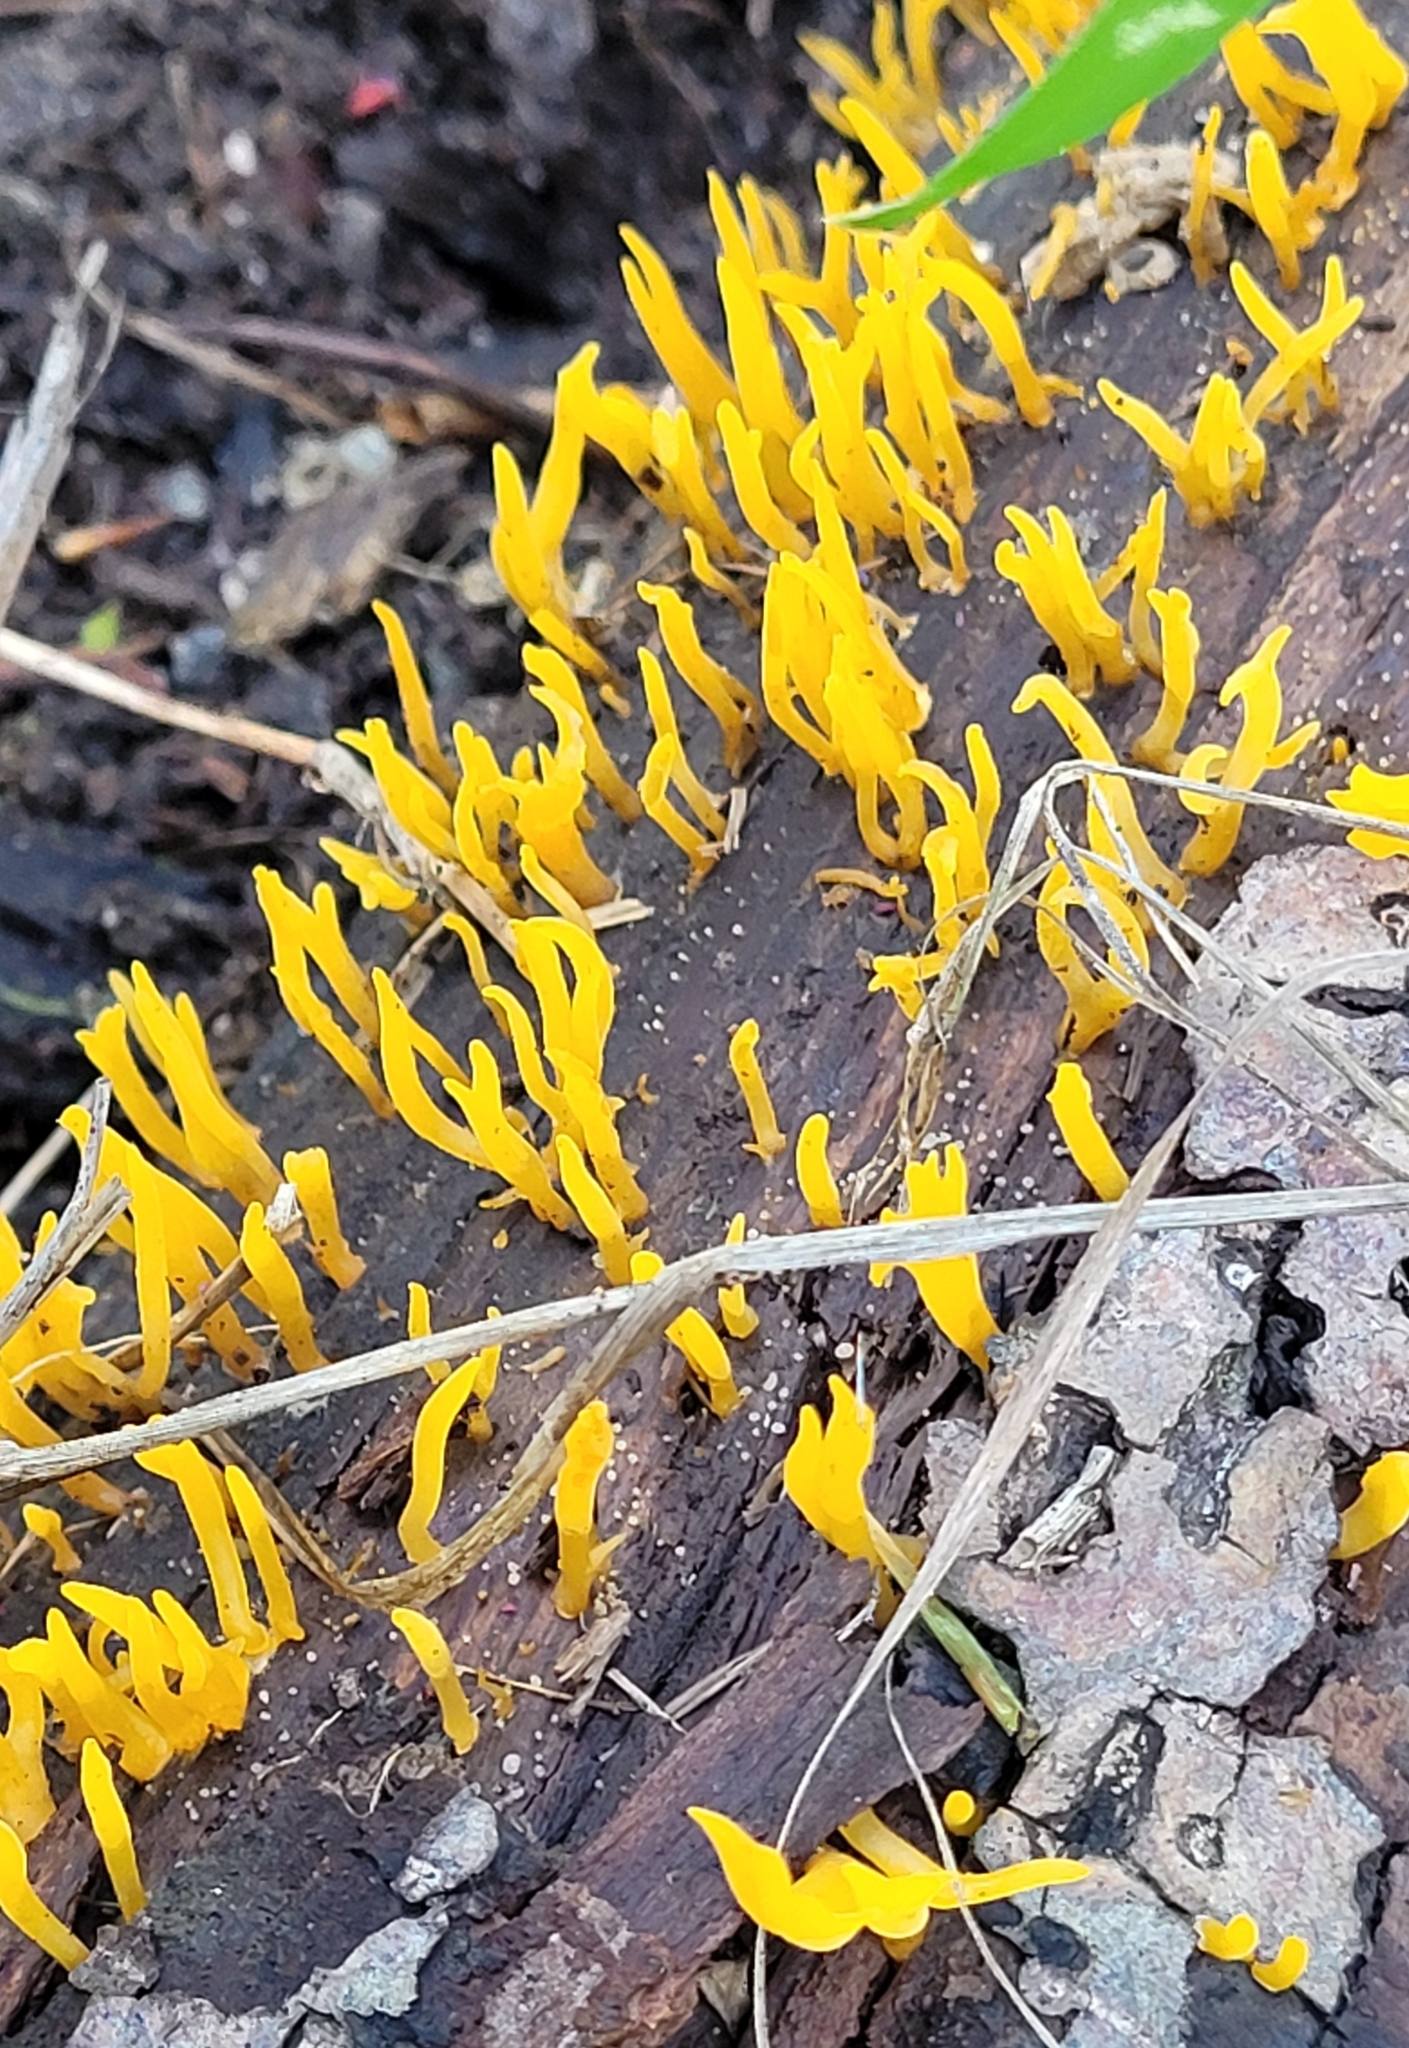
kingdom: Fungi
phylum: Basidiomycota
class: Dacrymycetes
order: Dacrymycetales
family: Dacrymycetaceae
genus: Calocera
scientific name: Calocera cornea
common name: Small stagshorn
